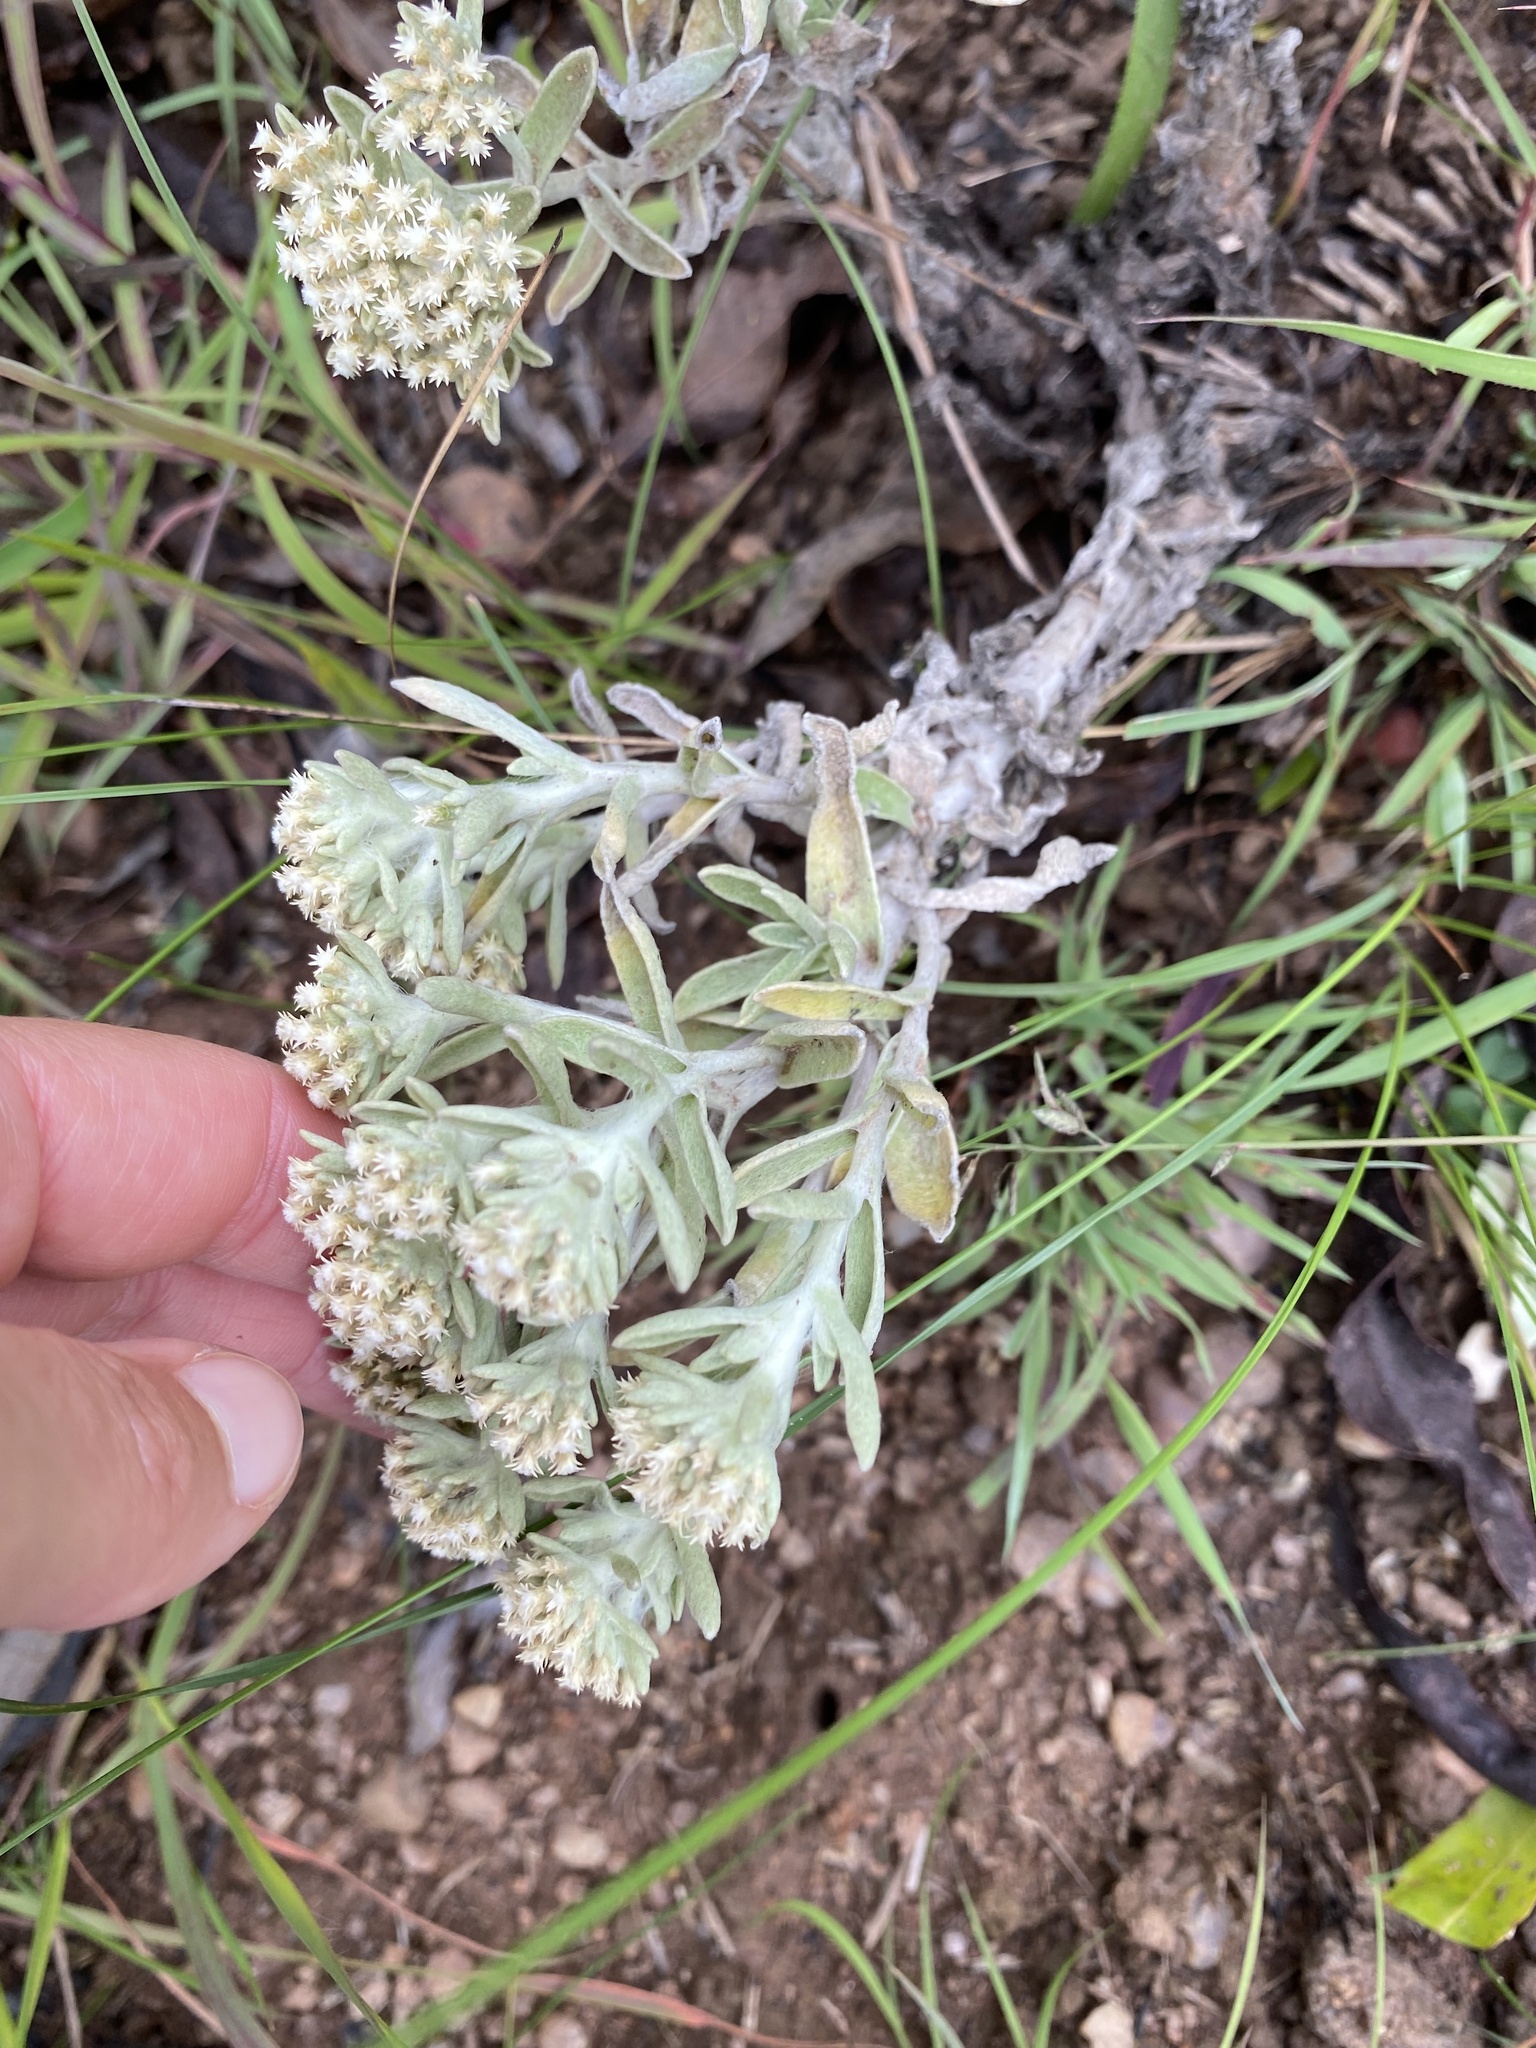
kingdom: Plantae
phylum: Tracheophyta
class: Magnoliopsida
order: Asterales
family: Asteraceae
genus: Helichrysum
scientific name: Helichrysum spiralepis
